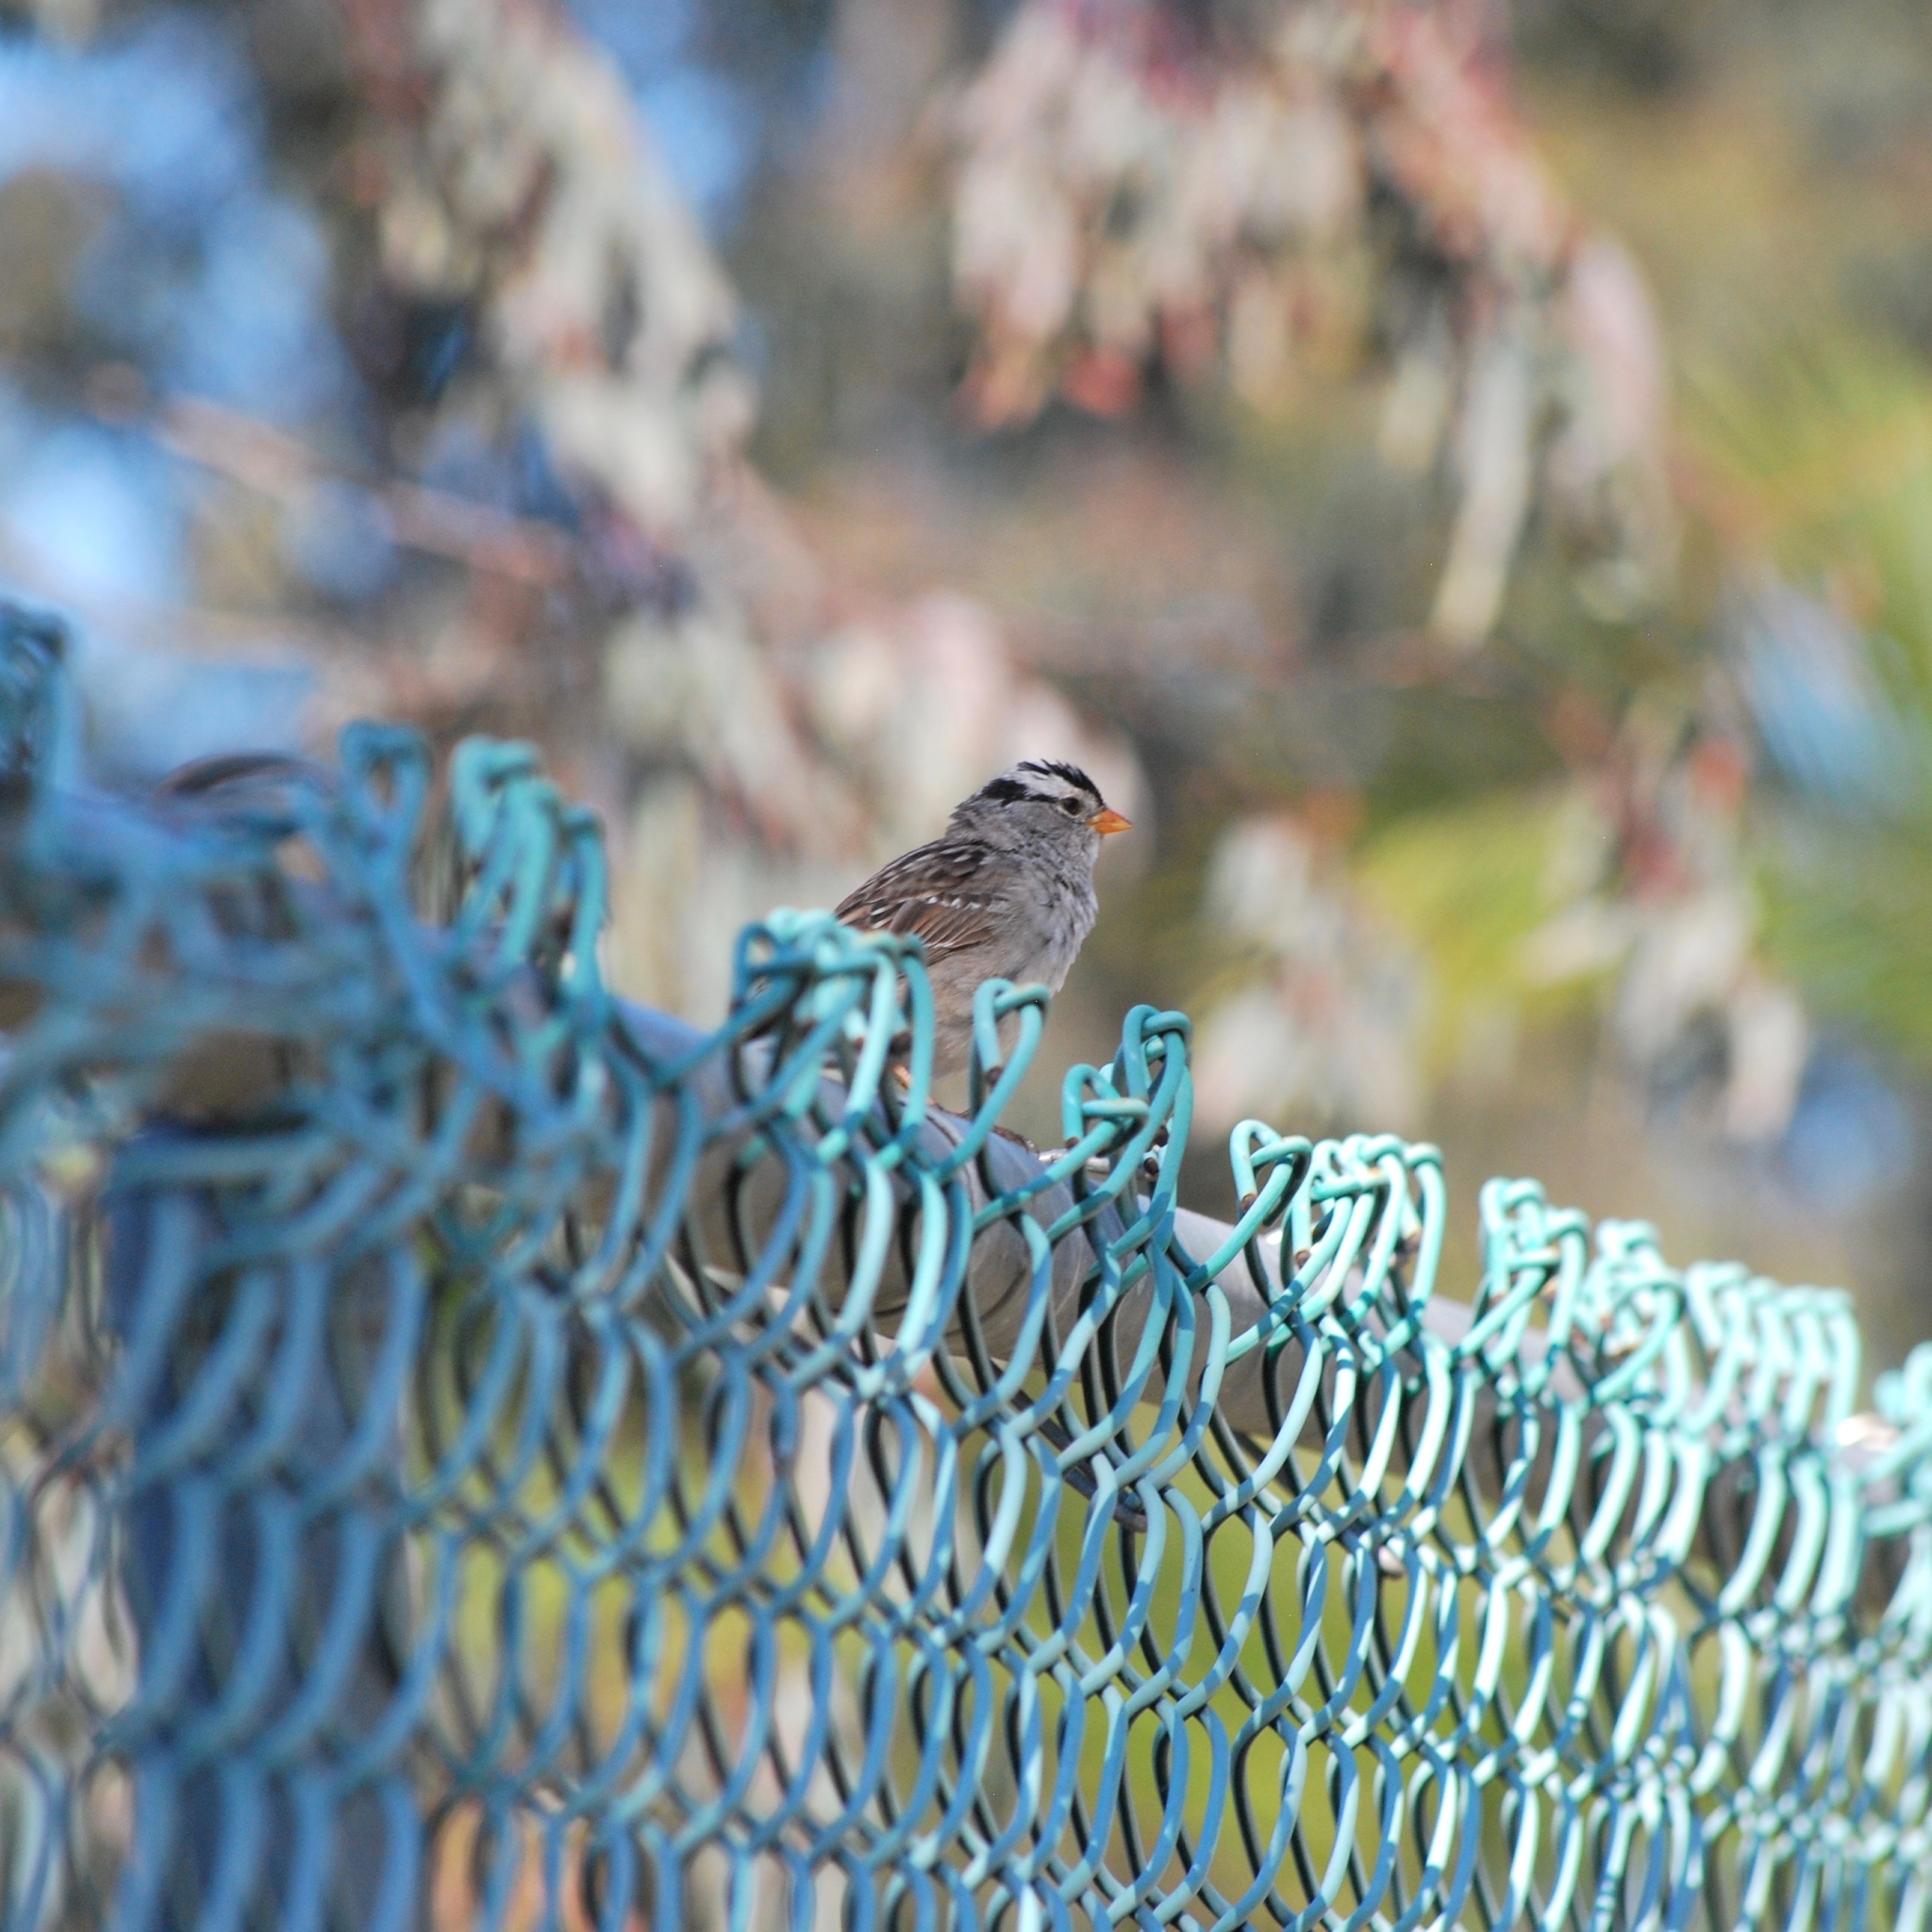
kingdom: Animalia
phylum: Chordata
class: Aves
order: Passeriformes
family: Passerellidae
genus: Zonotrichia
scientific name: Zonotrichia leucophrys
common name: White-crowned sparrow
